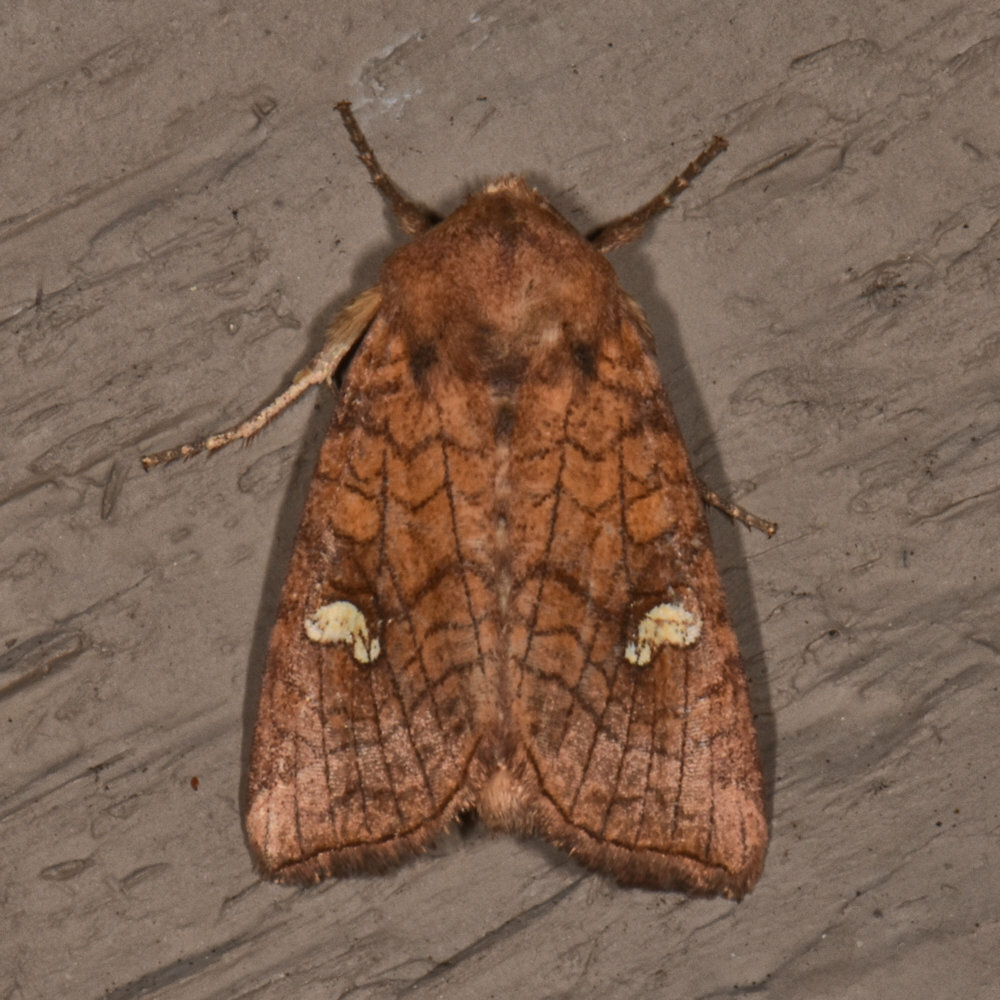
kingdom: Animalia
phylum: Arthropoda
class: Insecta
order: Lepidoptera
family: Noctuidae
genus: Amphipoea
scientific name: Amphipoea americana
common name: American ear moth
